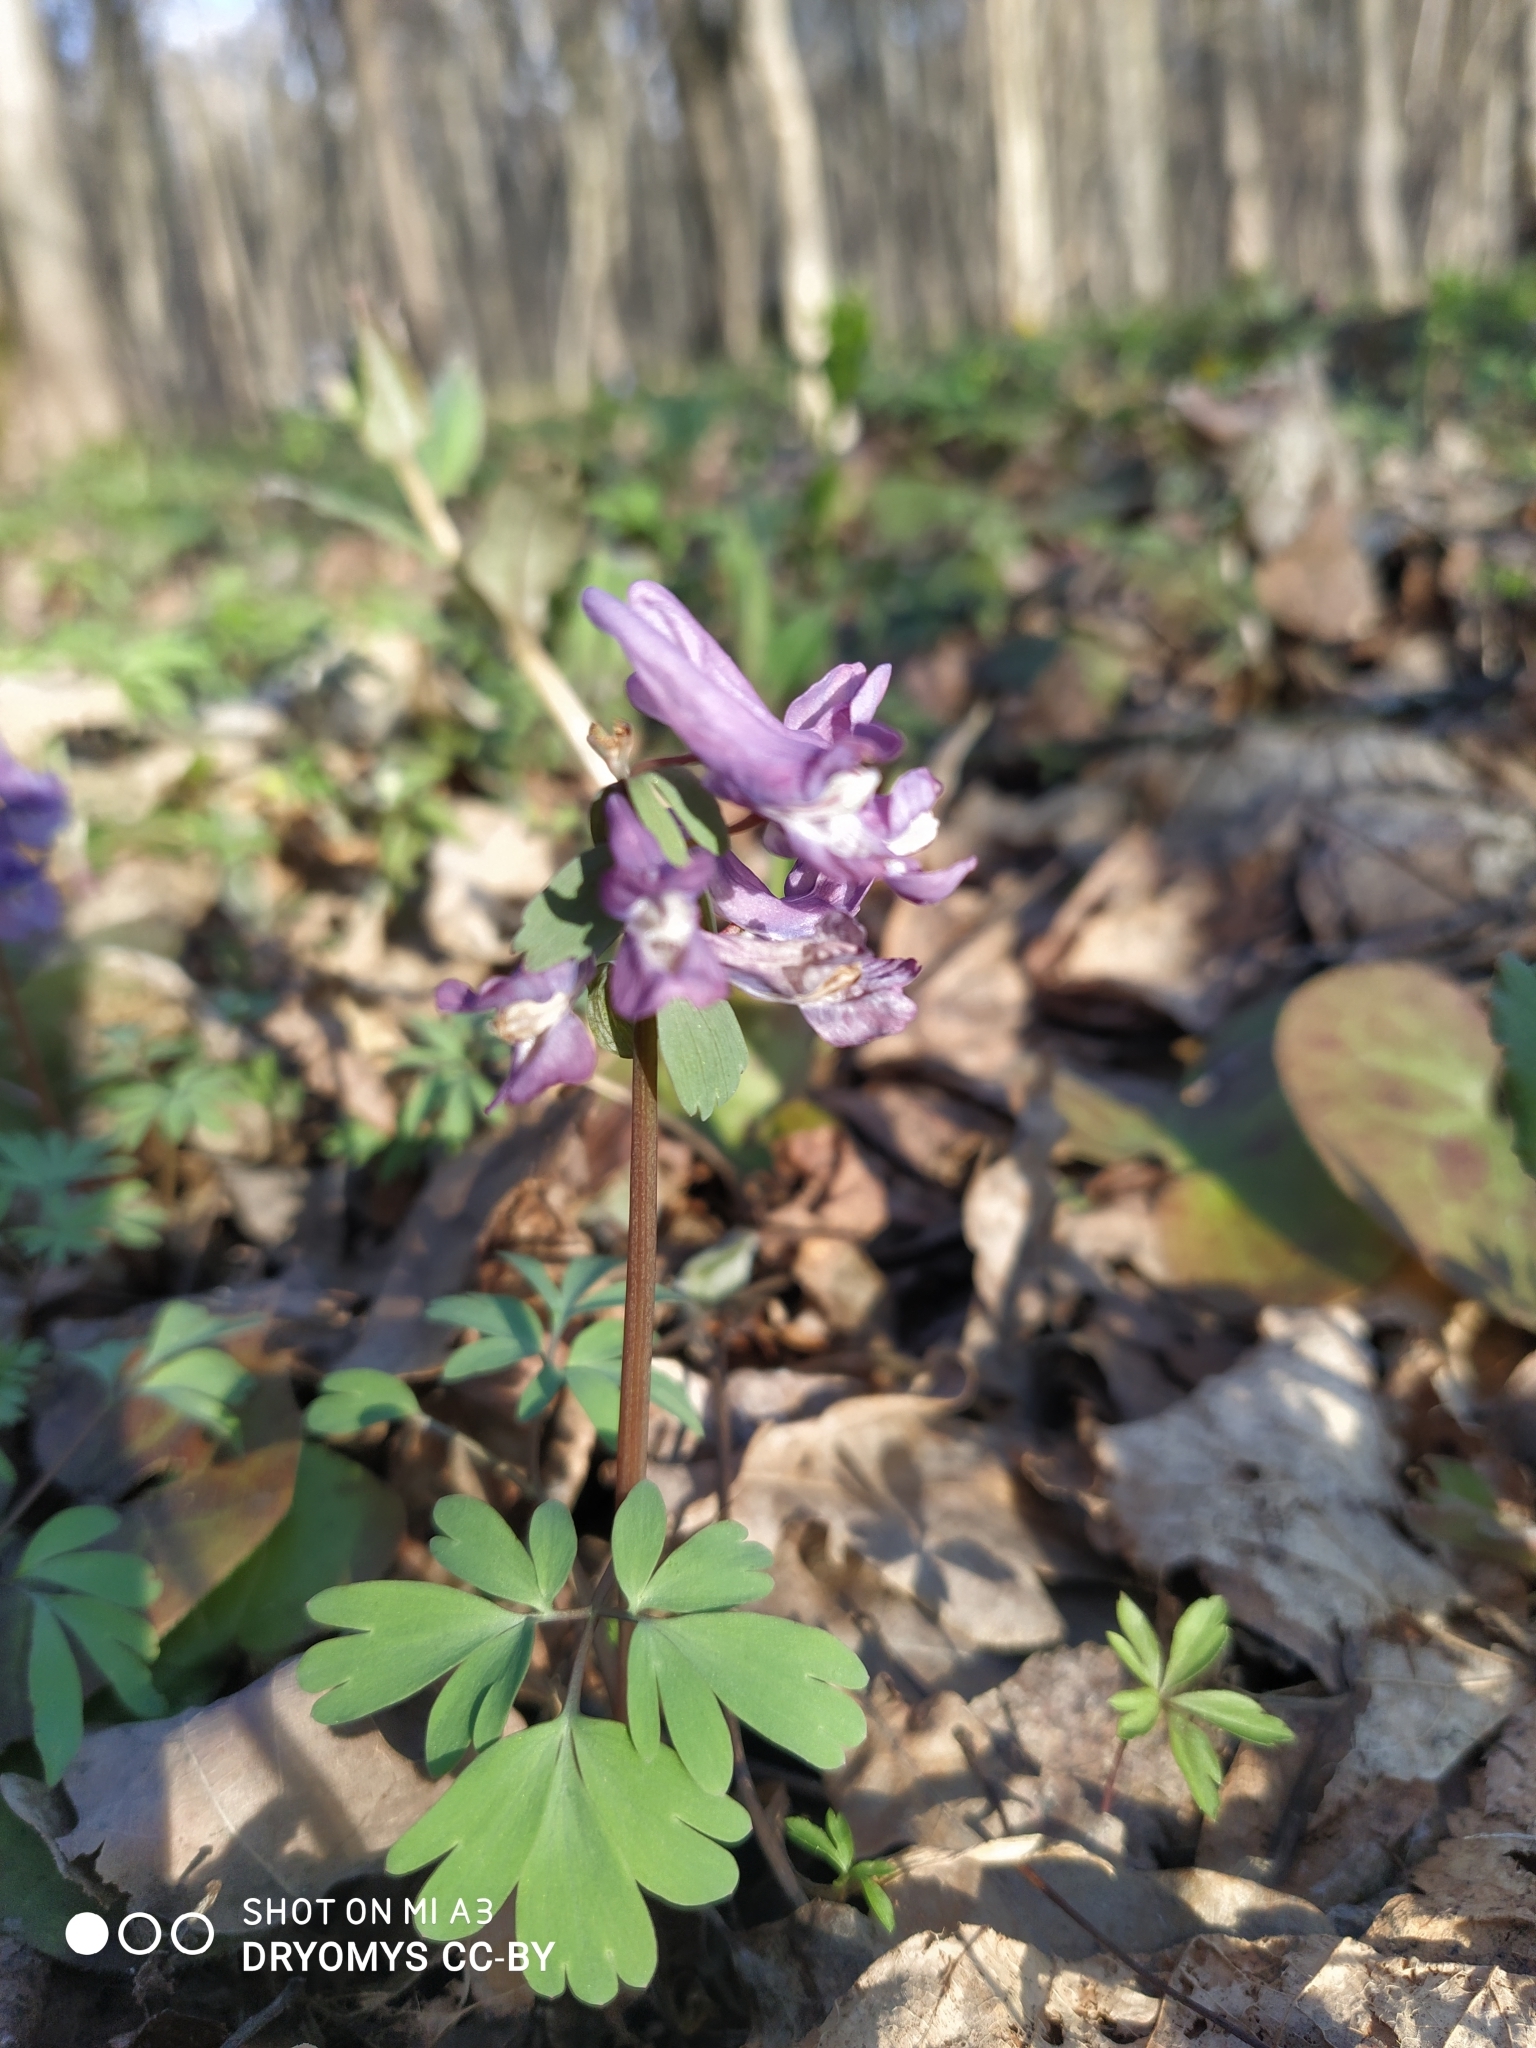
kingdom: Plantae
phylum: Tracheophyta
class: Magnoliopsida
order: Ranunculales
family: Papaveraceae
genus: Corydalis
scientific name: Corydalis solida
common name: Bird-in-a-bush
